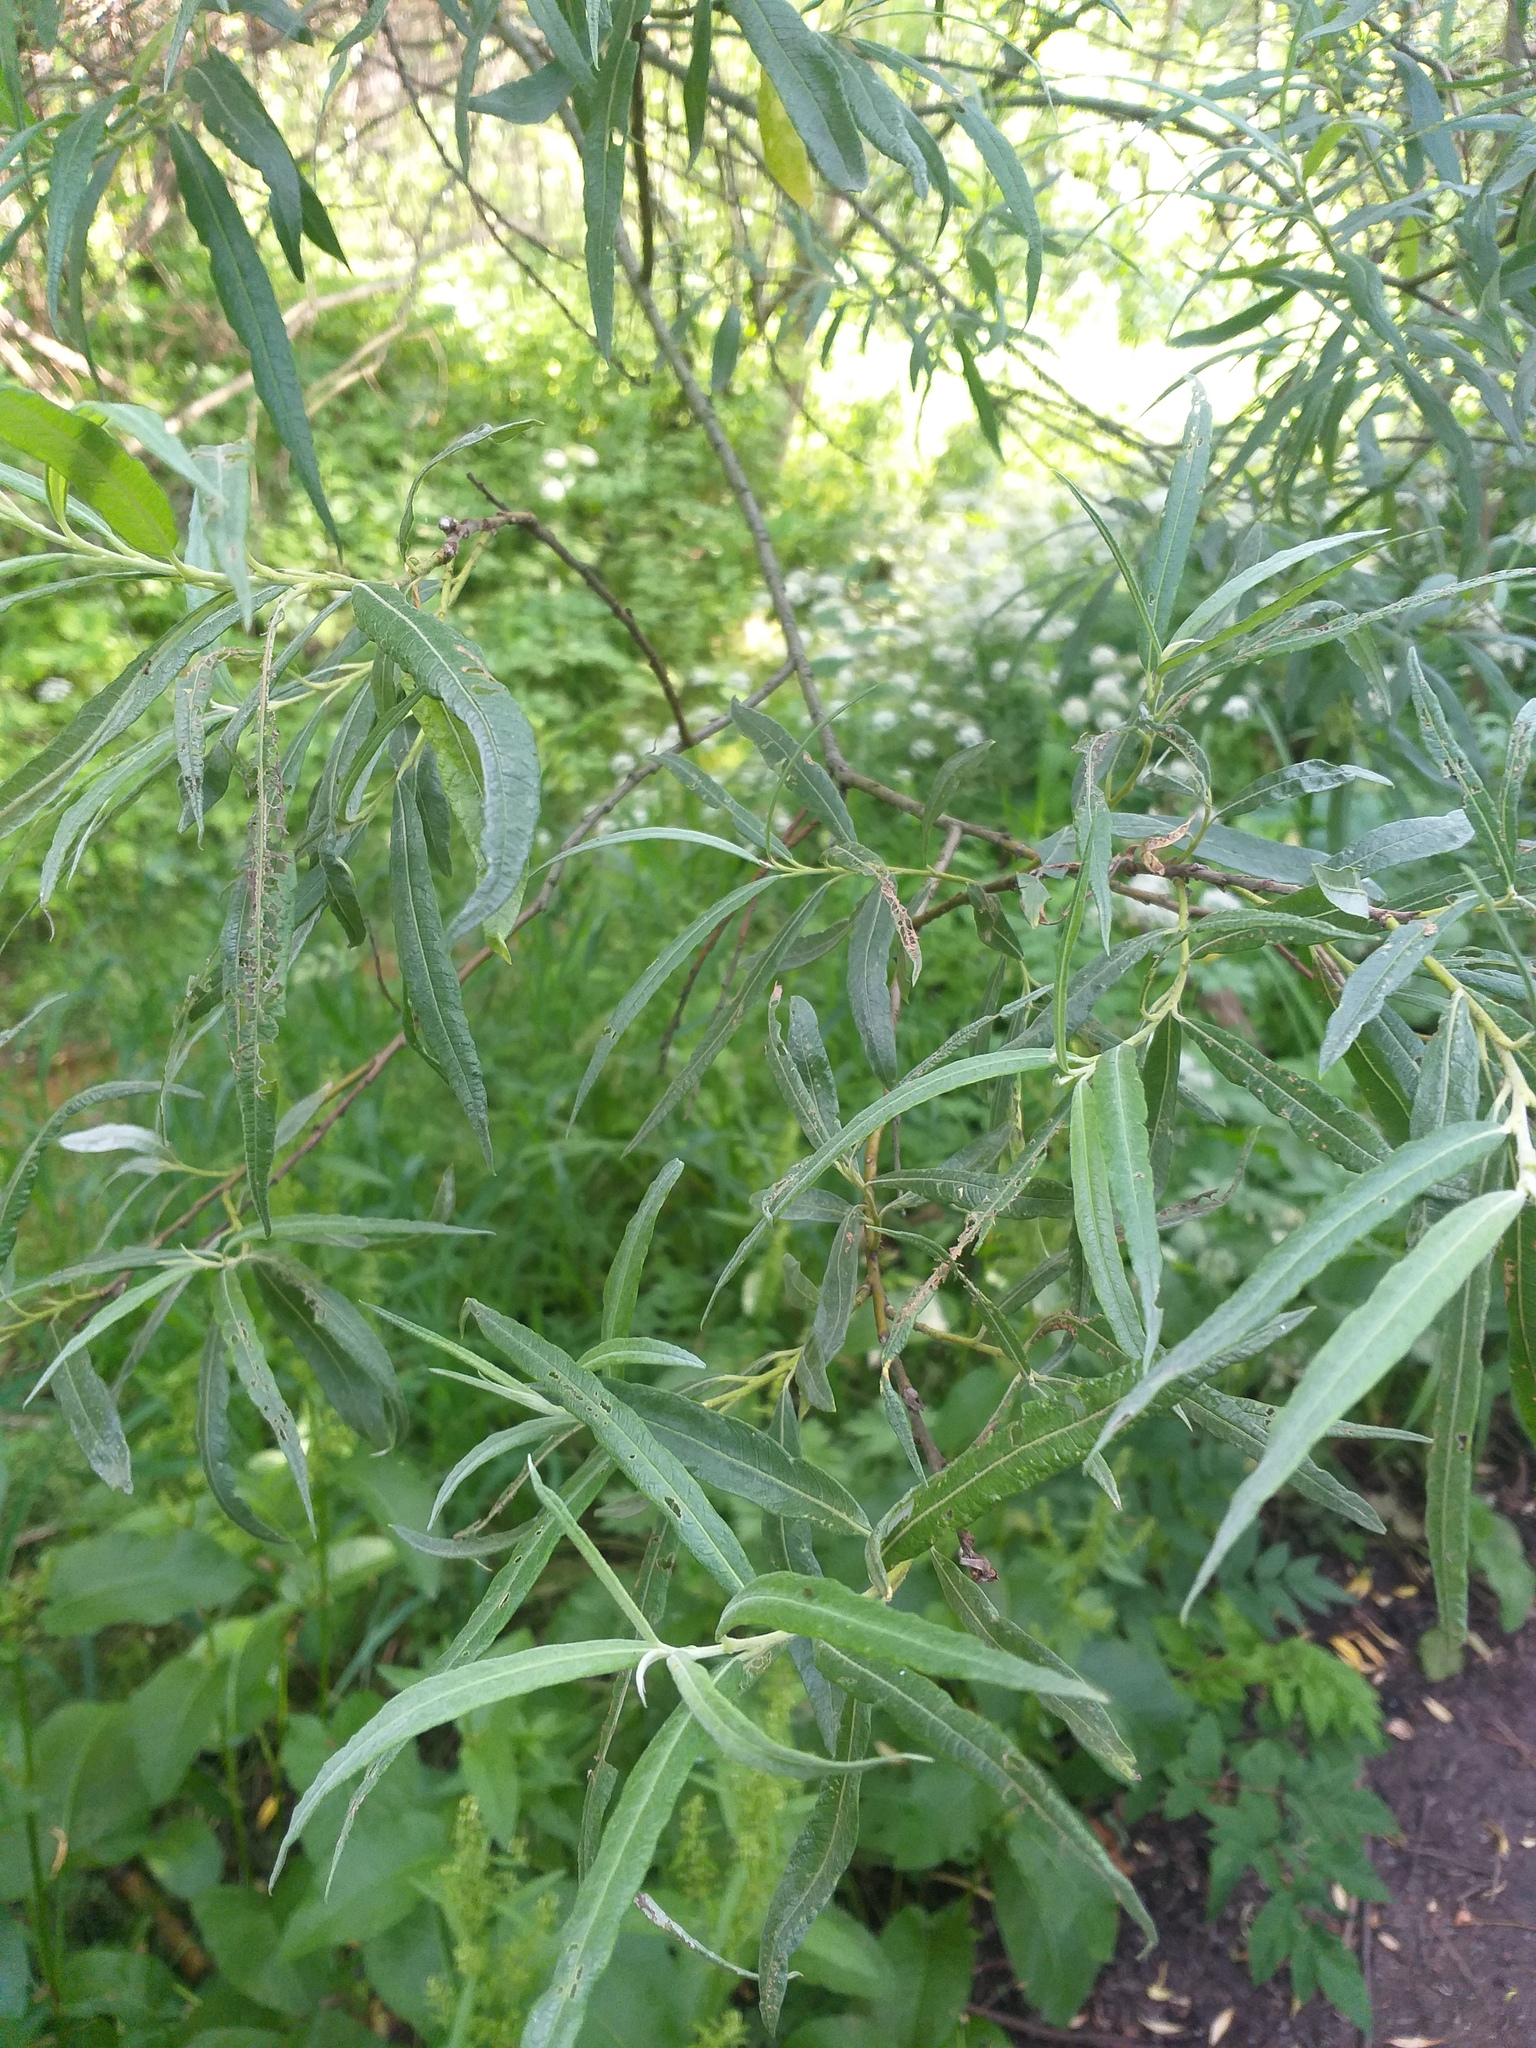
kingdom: Plantae
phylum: Tracheophyta
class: Magnoliopsida
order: Malpighiales
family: Salicaceae
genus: Salix
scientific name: Salix viminalis
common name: Osier
